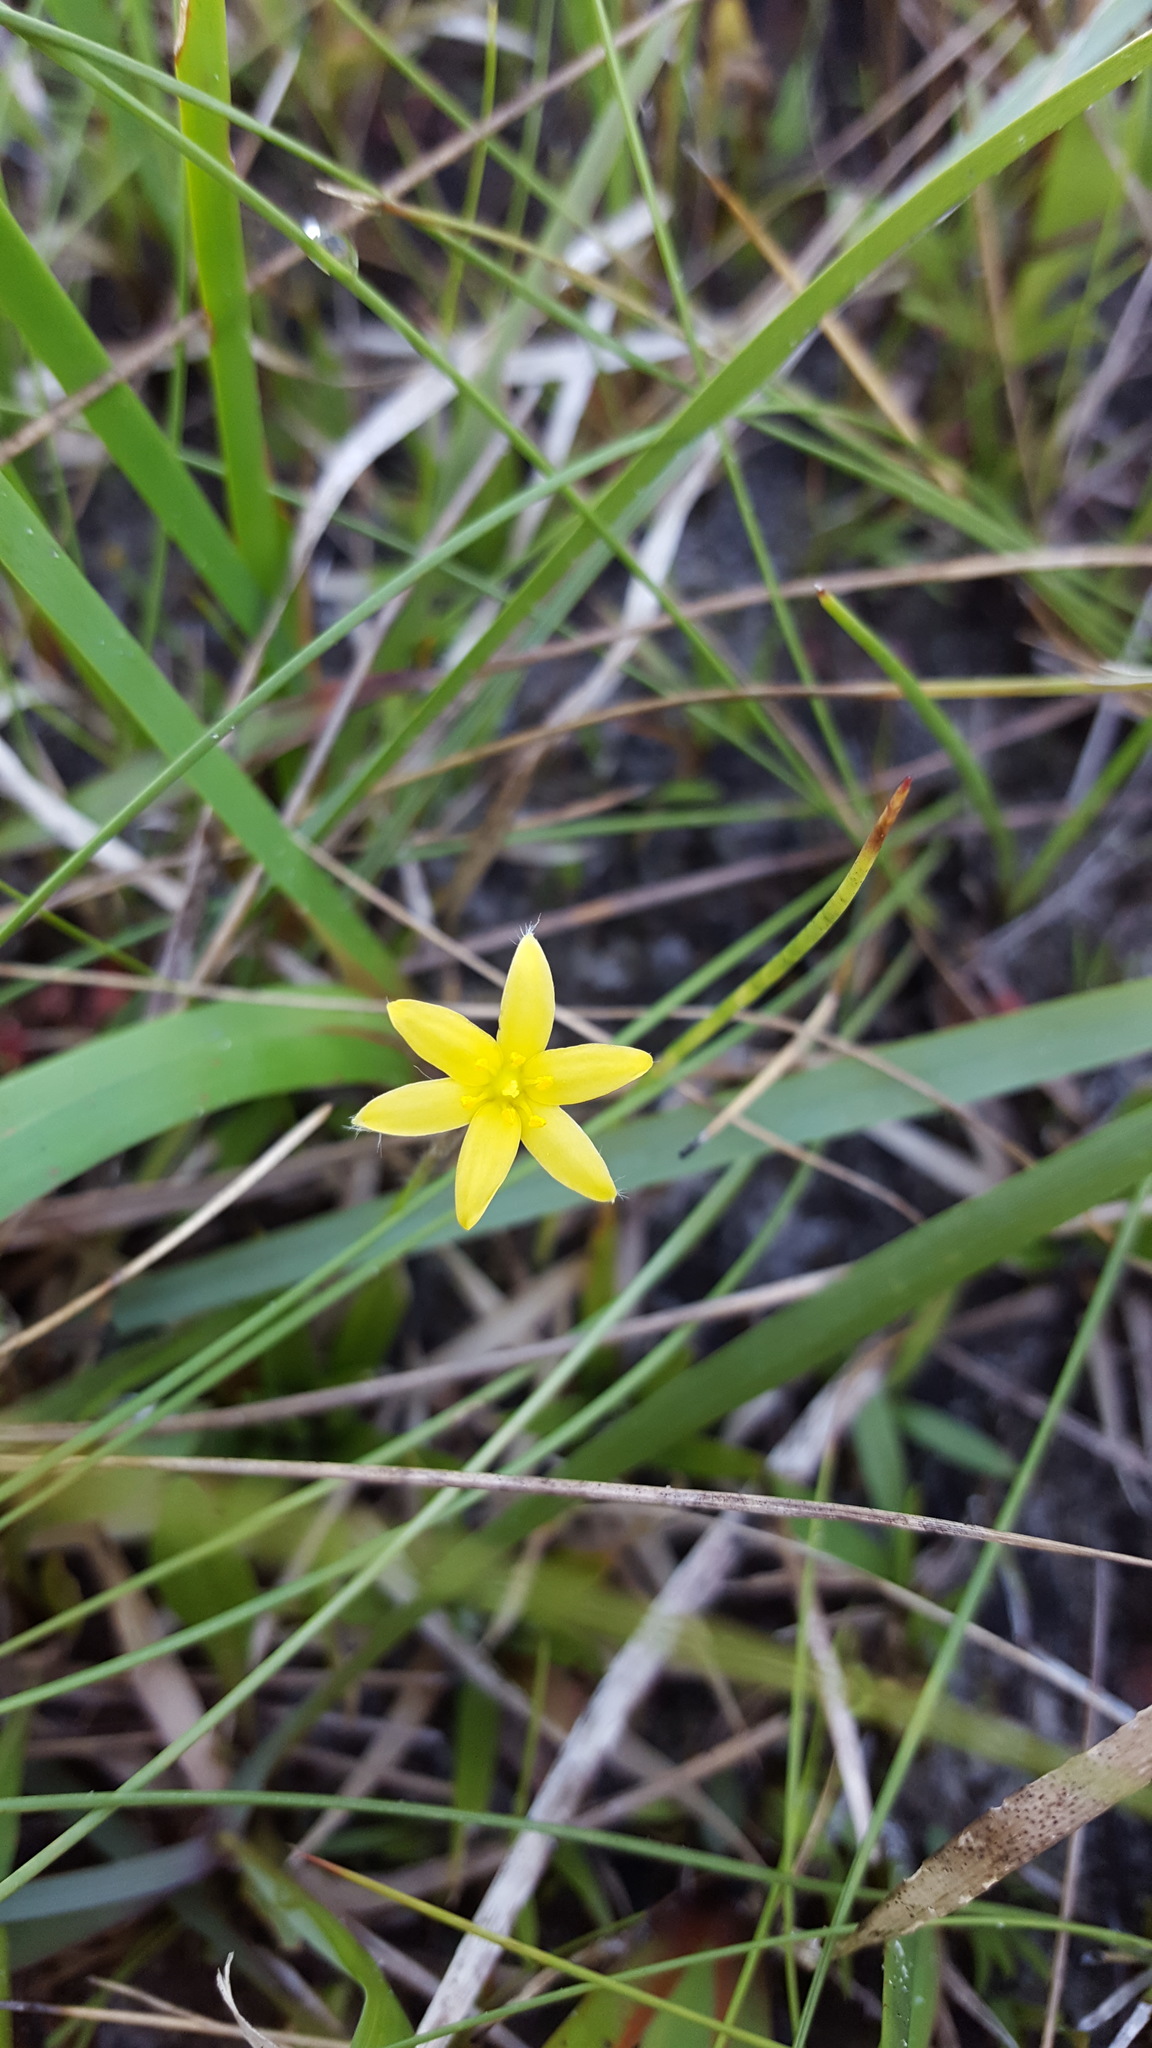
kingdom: Plantae
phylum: Tracheophyta
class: Liliopsida
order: Asparagales
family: Hypoxidaceae
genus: Hypoxis
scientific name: Hypoxis hirsuta
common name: Common goldstar
